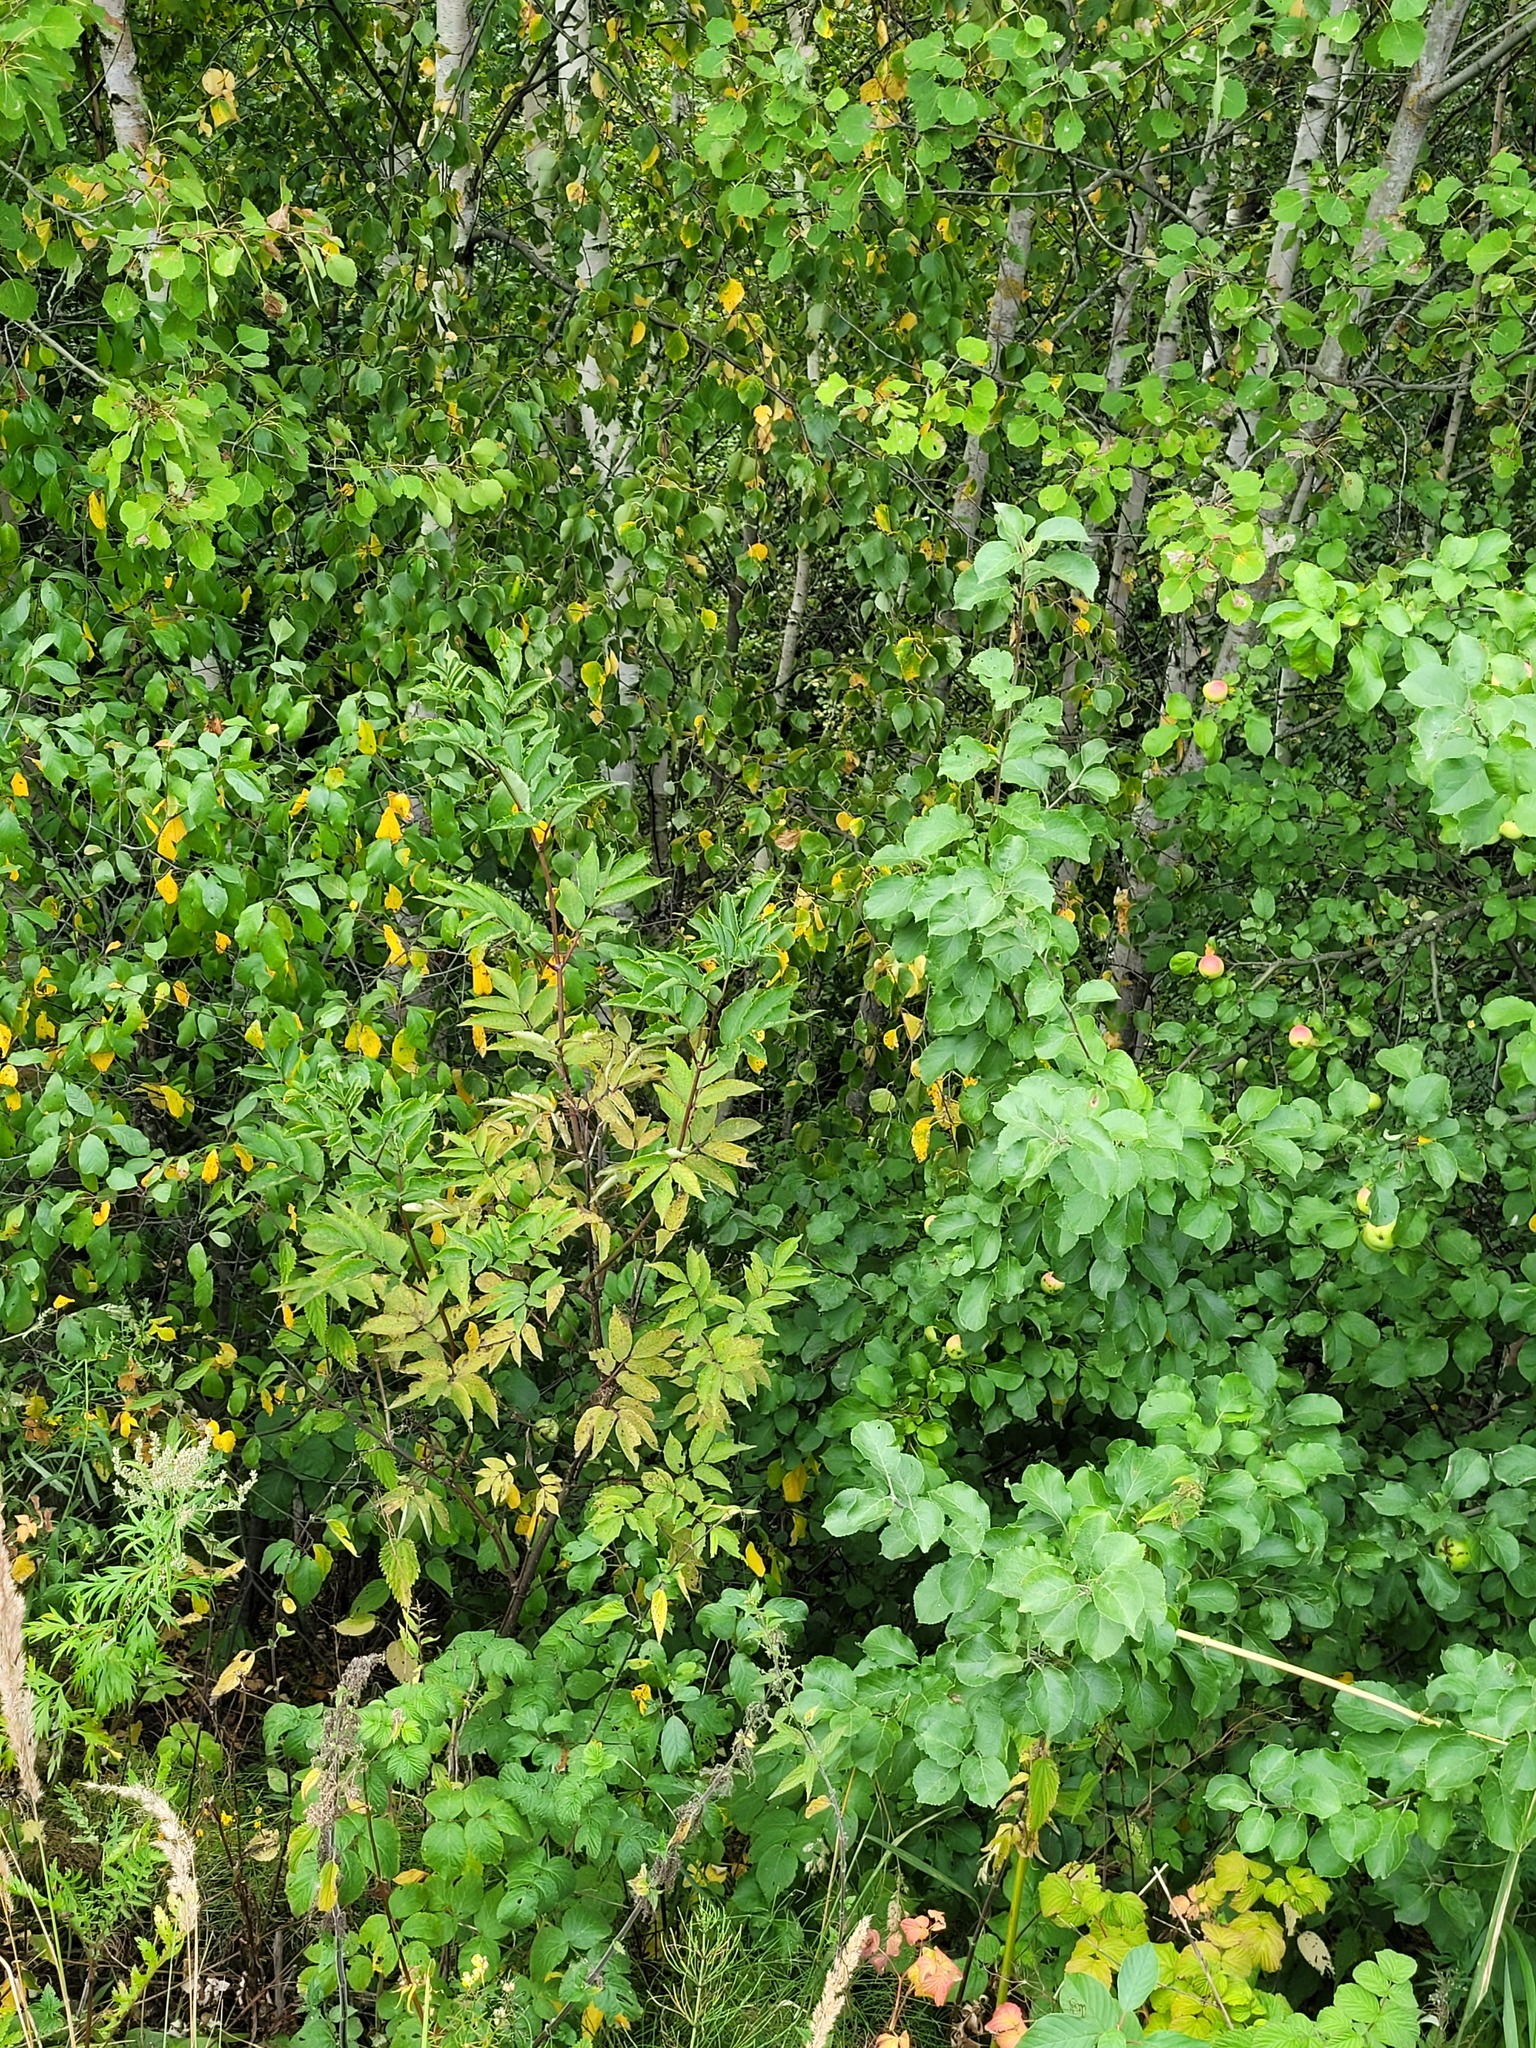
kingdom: Plantae
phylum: Tracheophyta
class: Magnoliopsida
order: Dipsacales
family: Viburnaceae
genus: Sambucus
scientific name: Sambucus racemosa
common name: Red-berried elder
